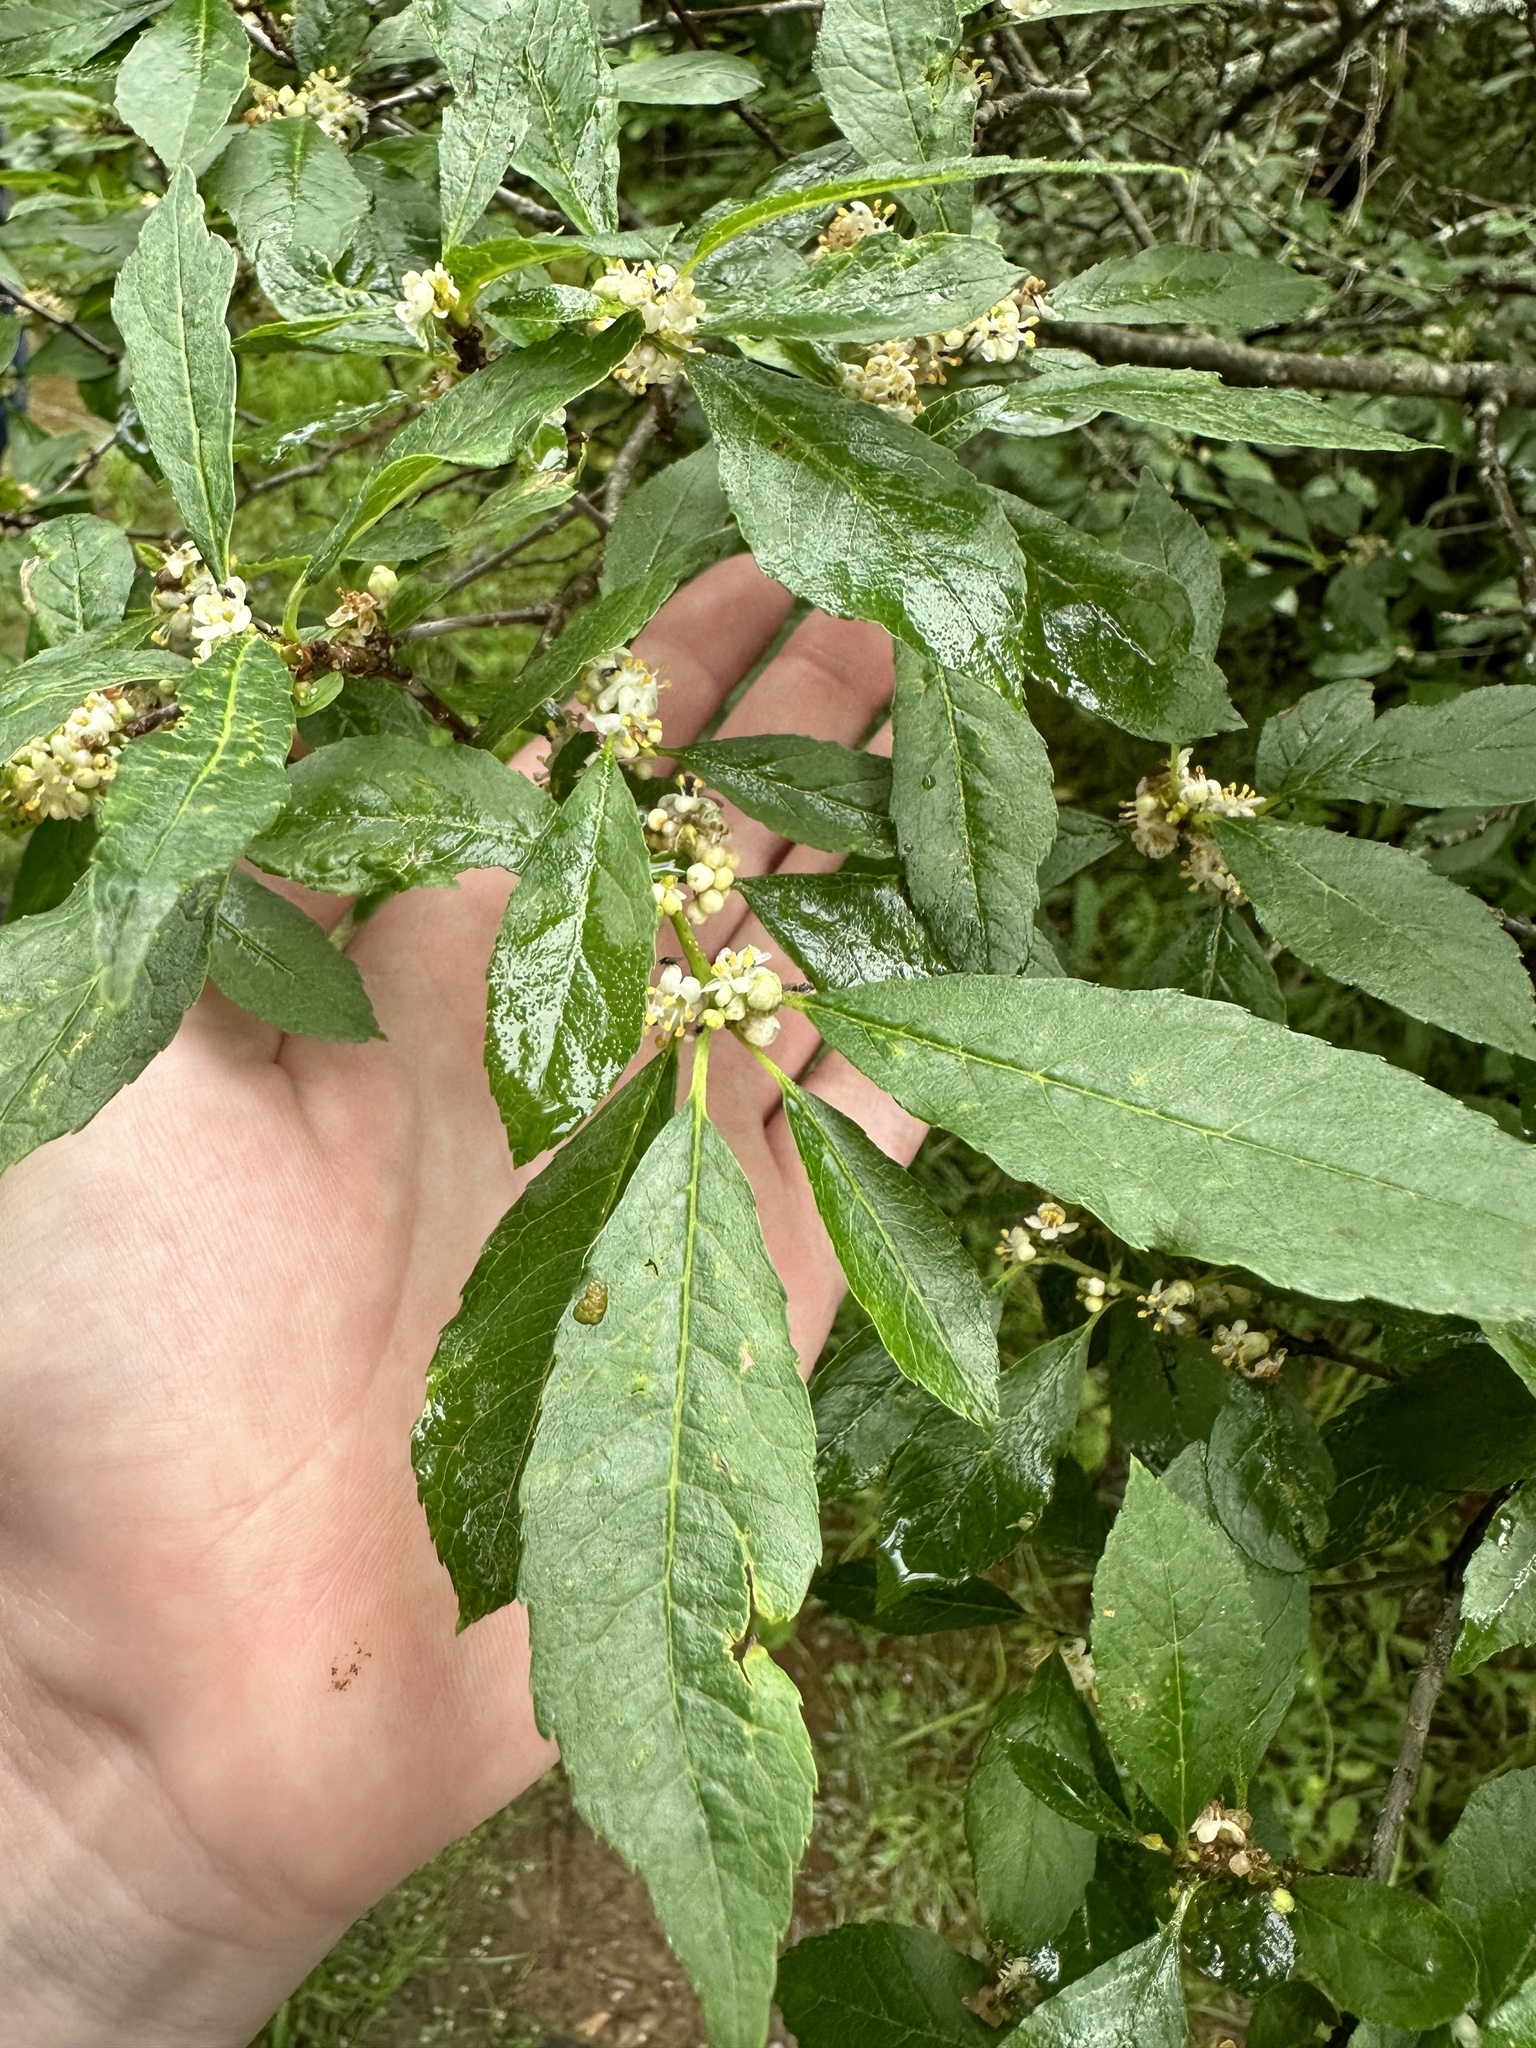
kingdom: Plantae
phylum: Tracheophyta
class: Magnoliopsida
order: Aquifoliales
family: Aquifoliaceae
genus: Ilex
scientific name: Ilex verticillata
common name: Virginia winterberry
